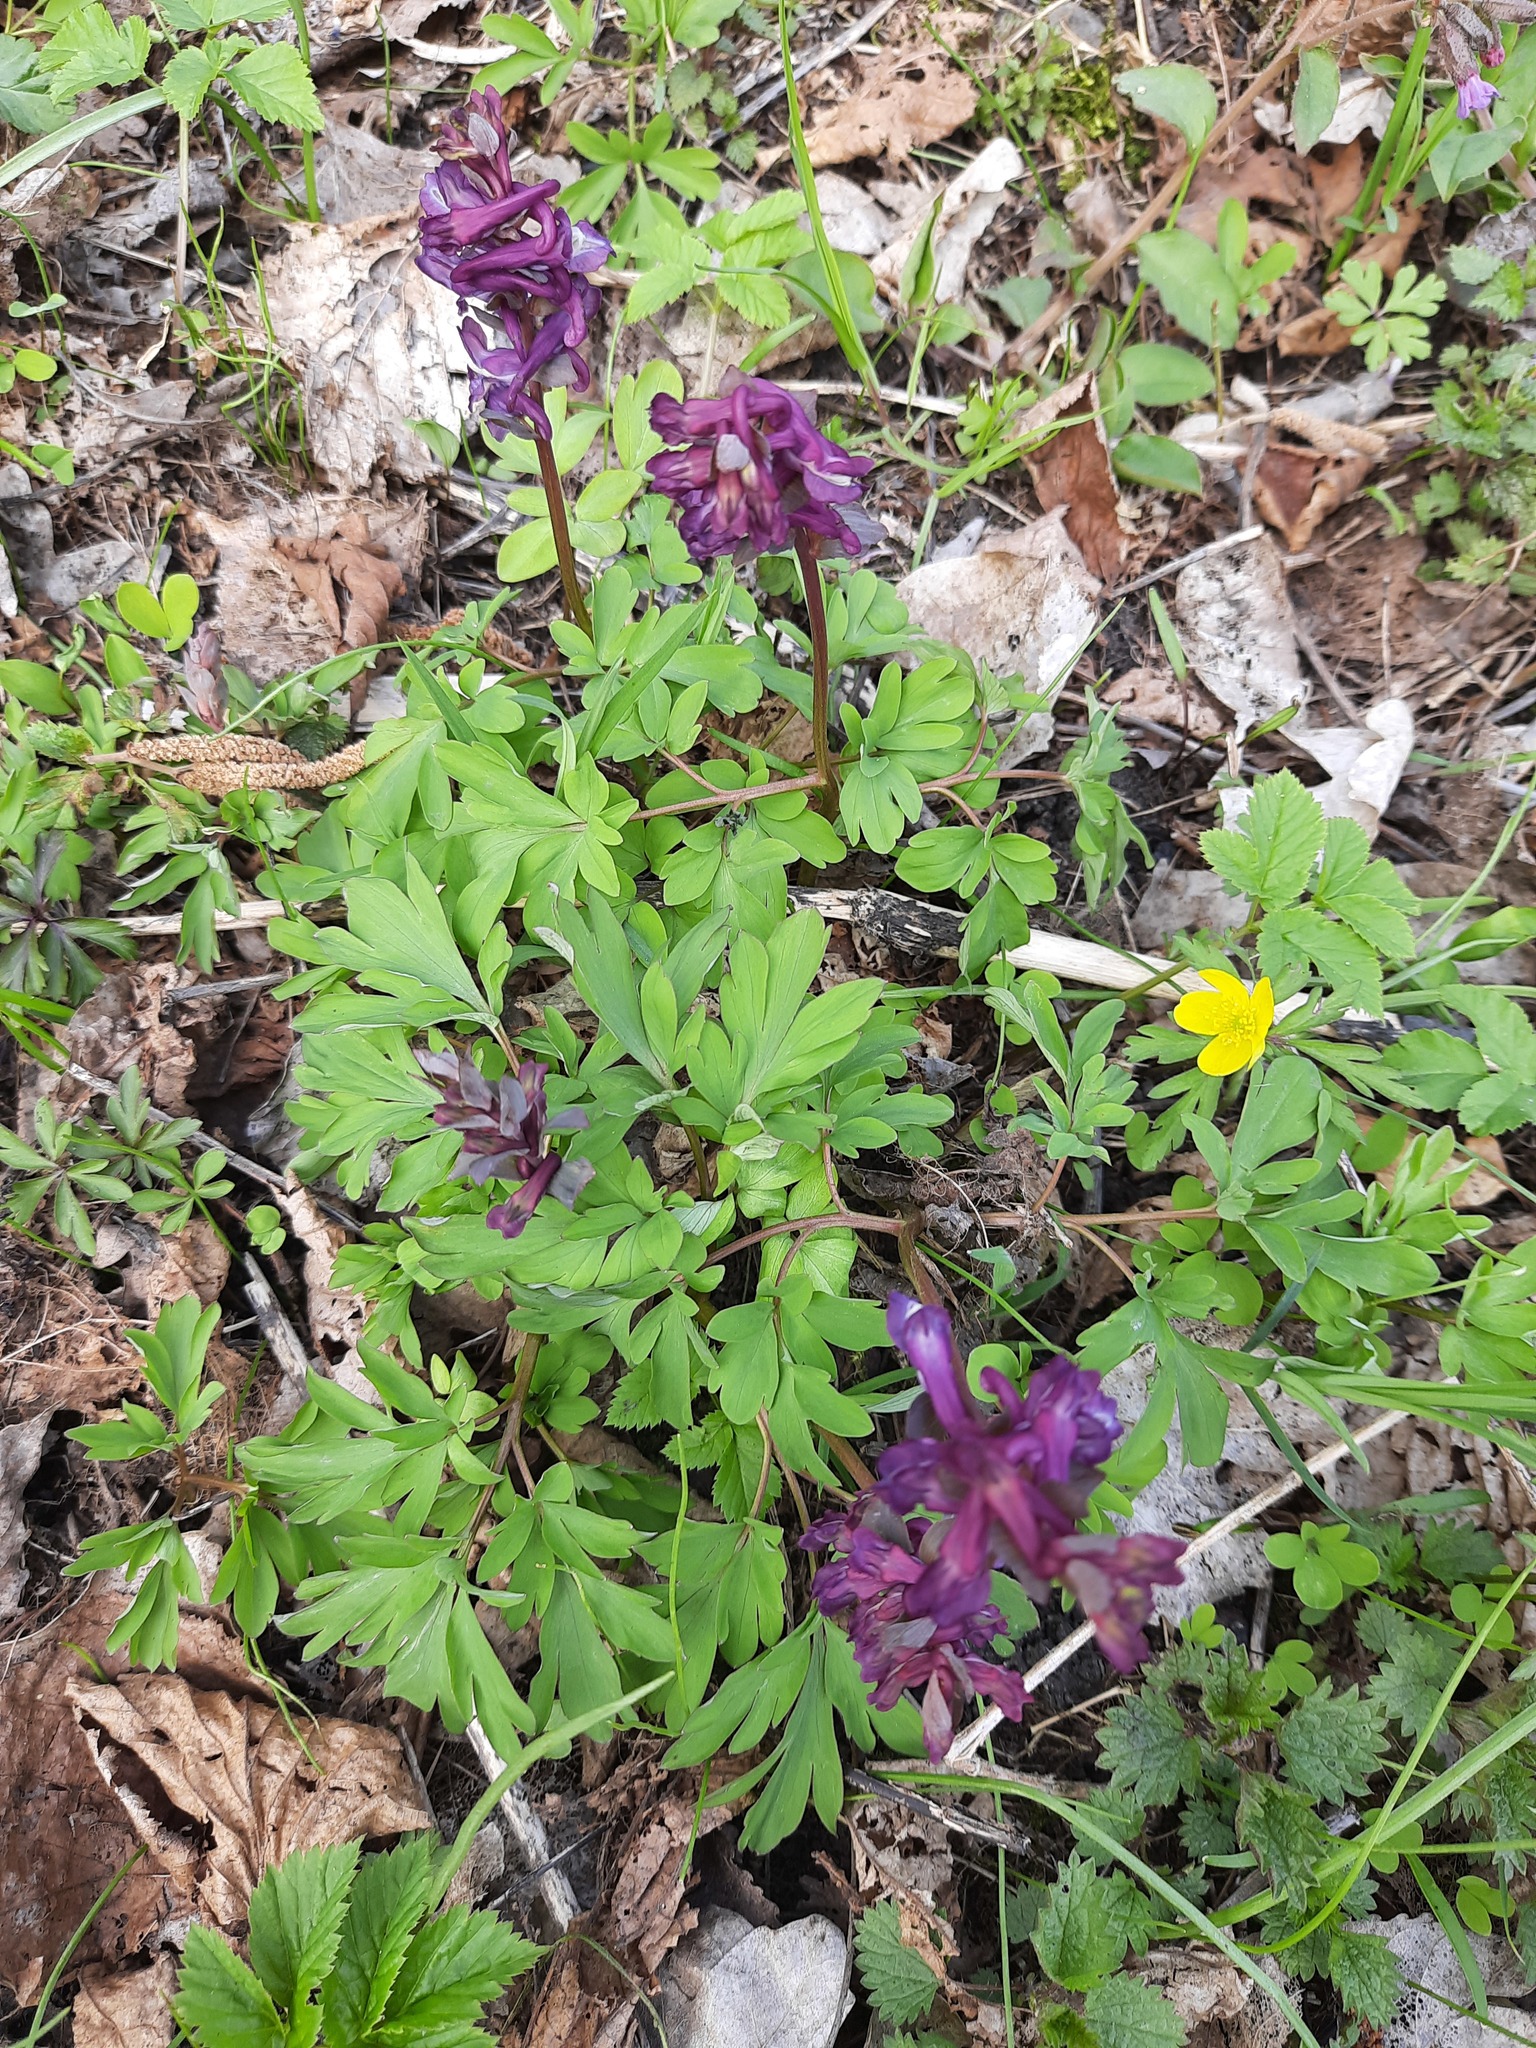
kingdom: Plantae
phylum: Tracheophyta
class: Magnoliopsida
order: Ranunculales
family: Papaveraceae
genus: Corydalis
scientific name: Corydalis cava
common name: Hollowroot
